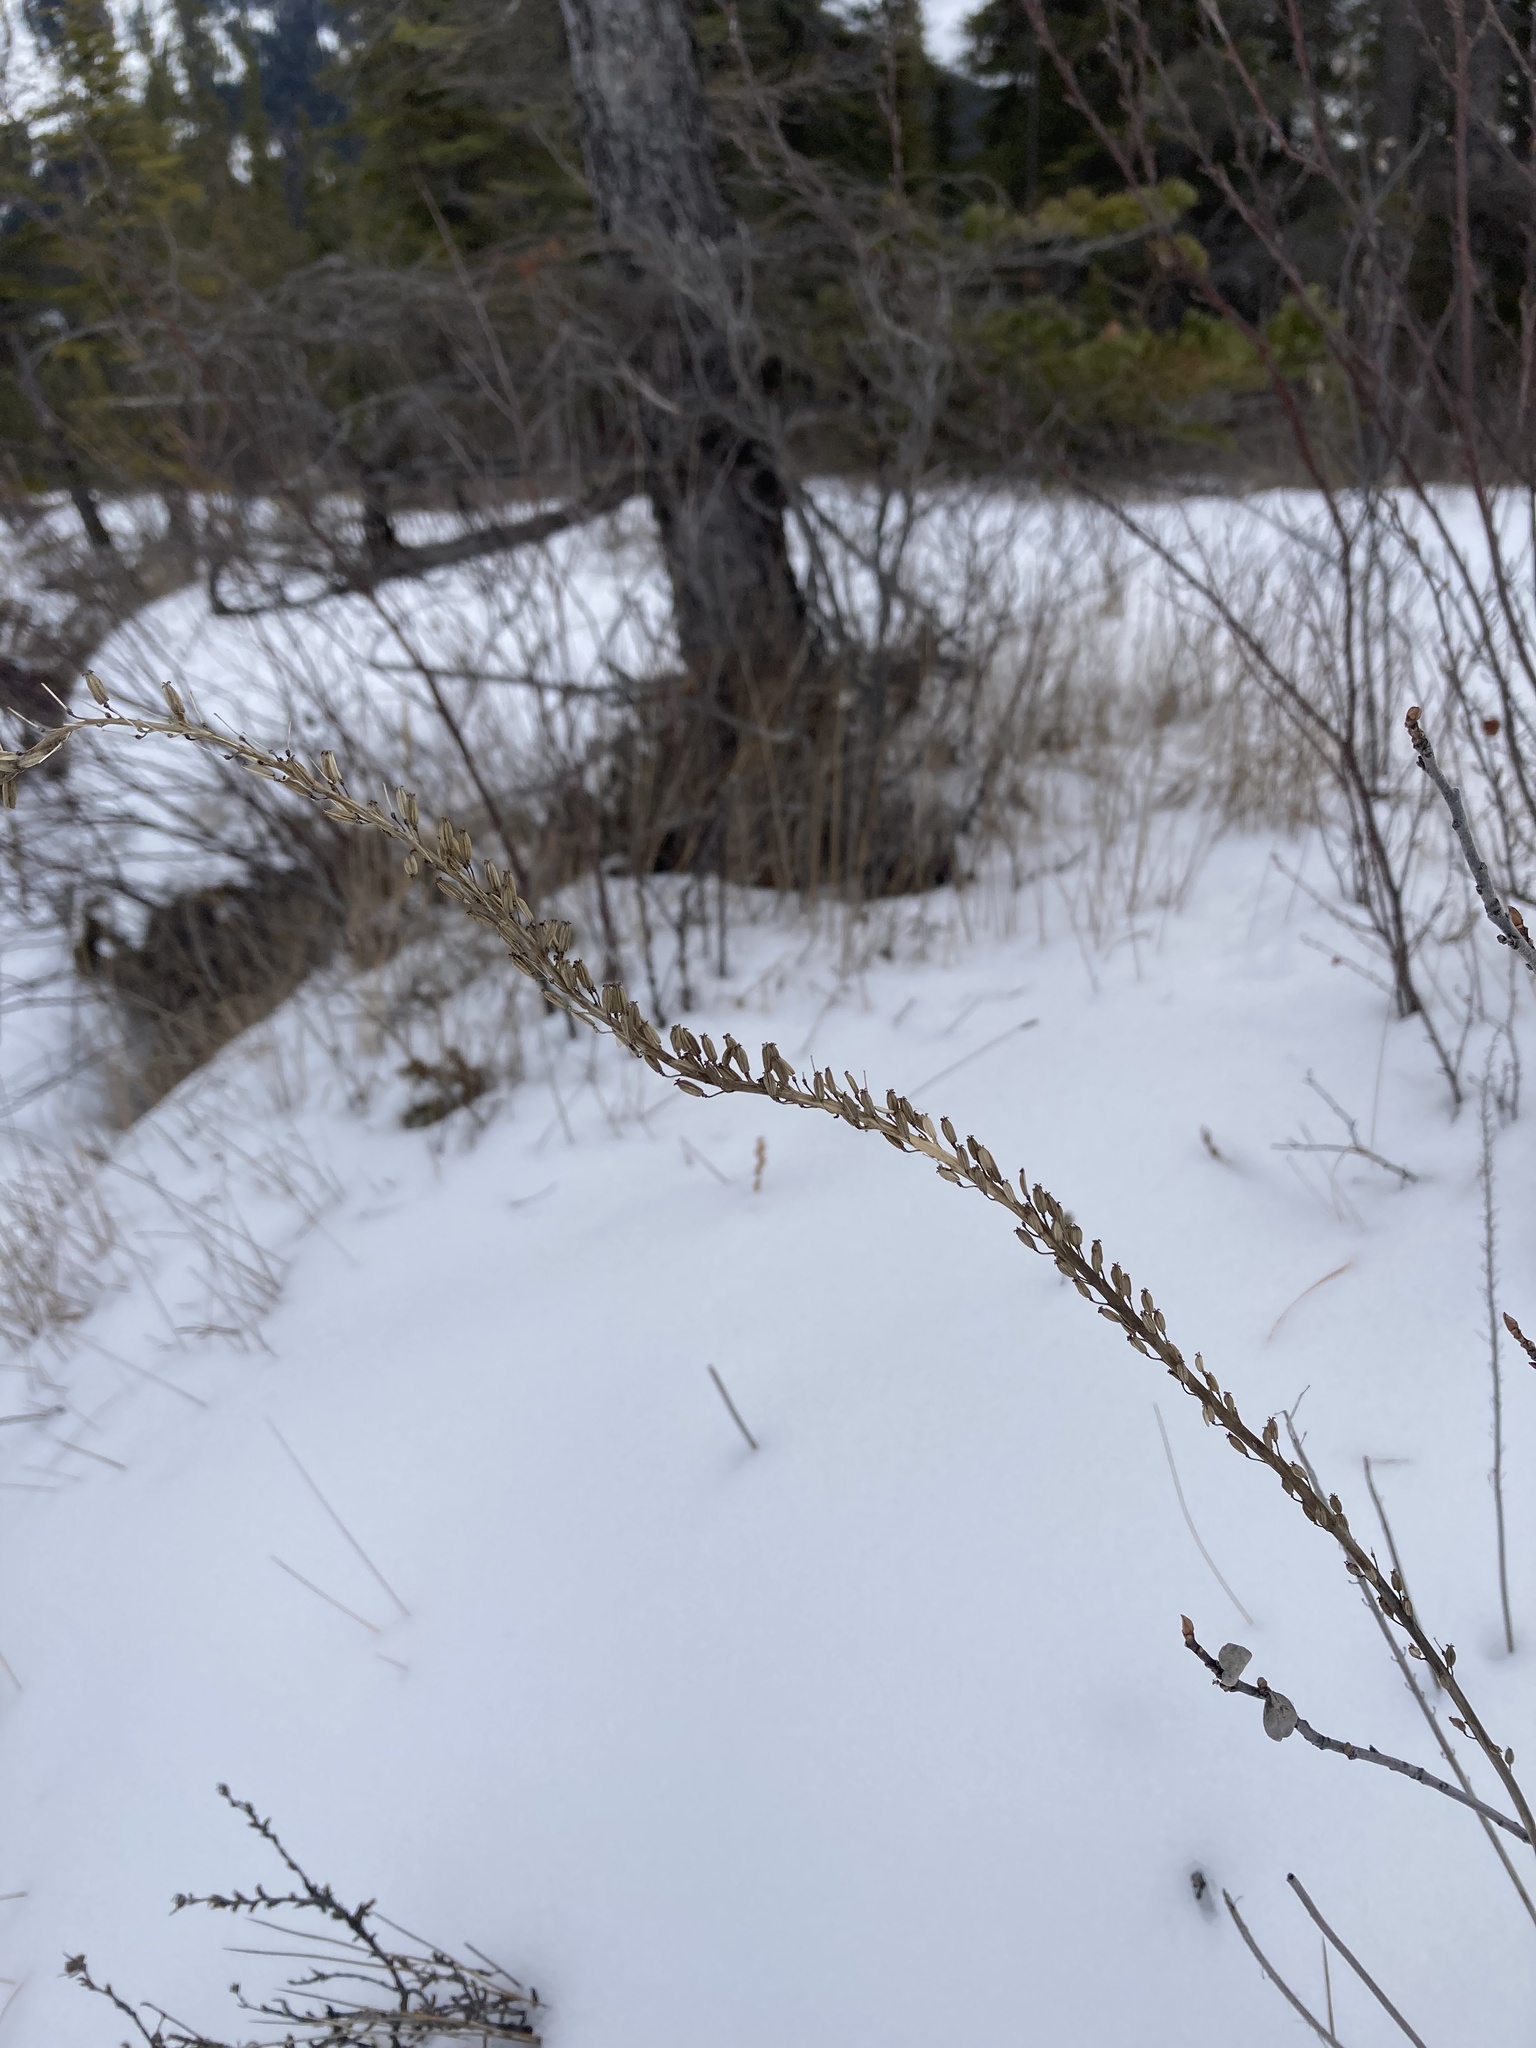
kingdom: Plantae
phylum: Tracheophyta
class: Liliopsida
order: Alismatales
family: Juncaginaceae
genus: Triglochin
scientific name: Triglochin maritima
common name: Sea arrowgrass
